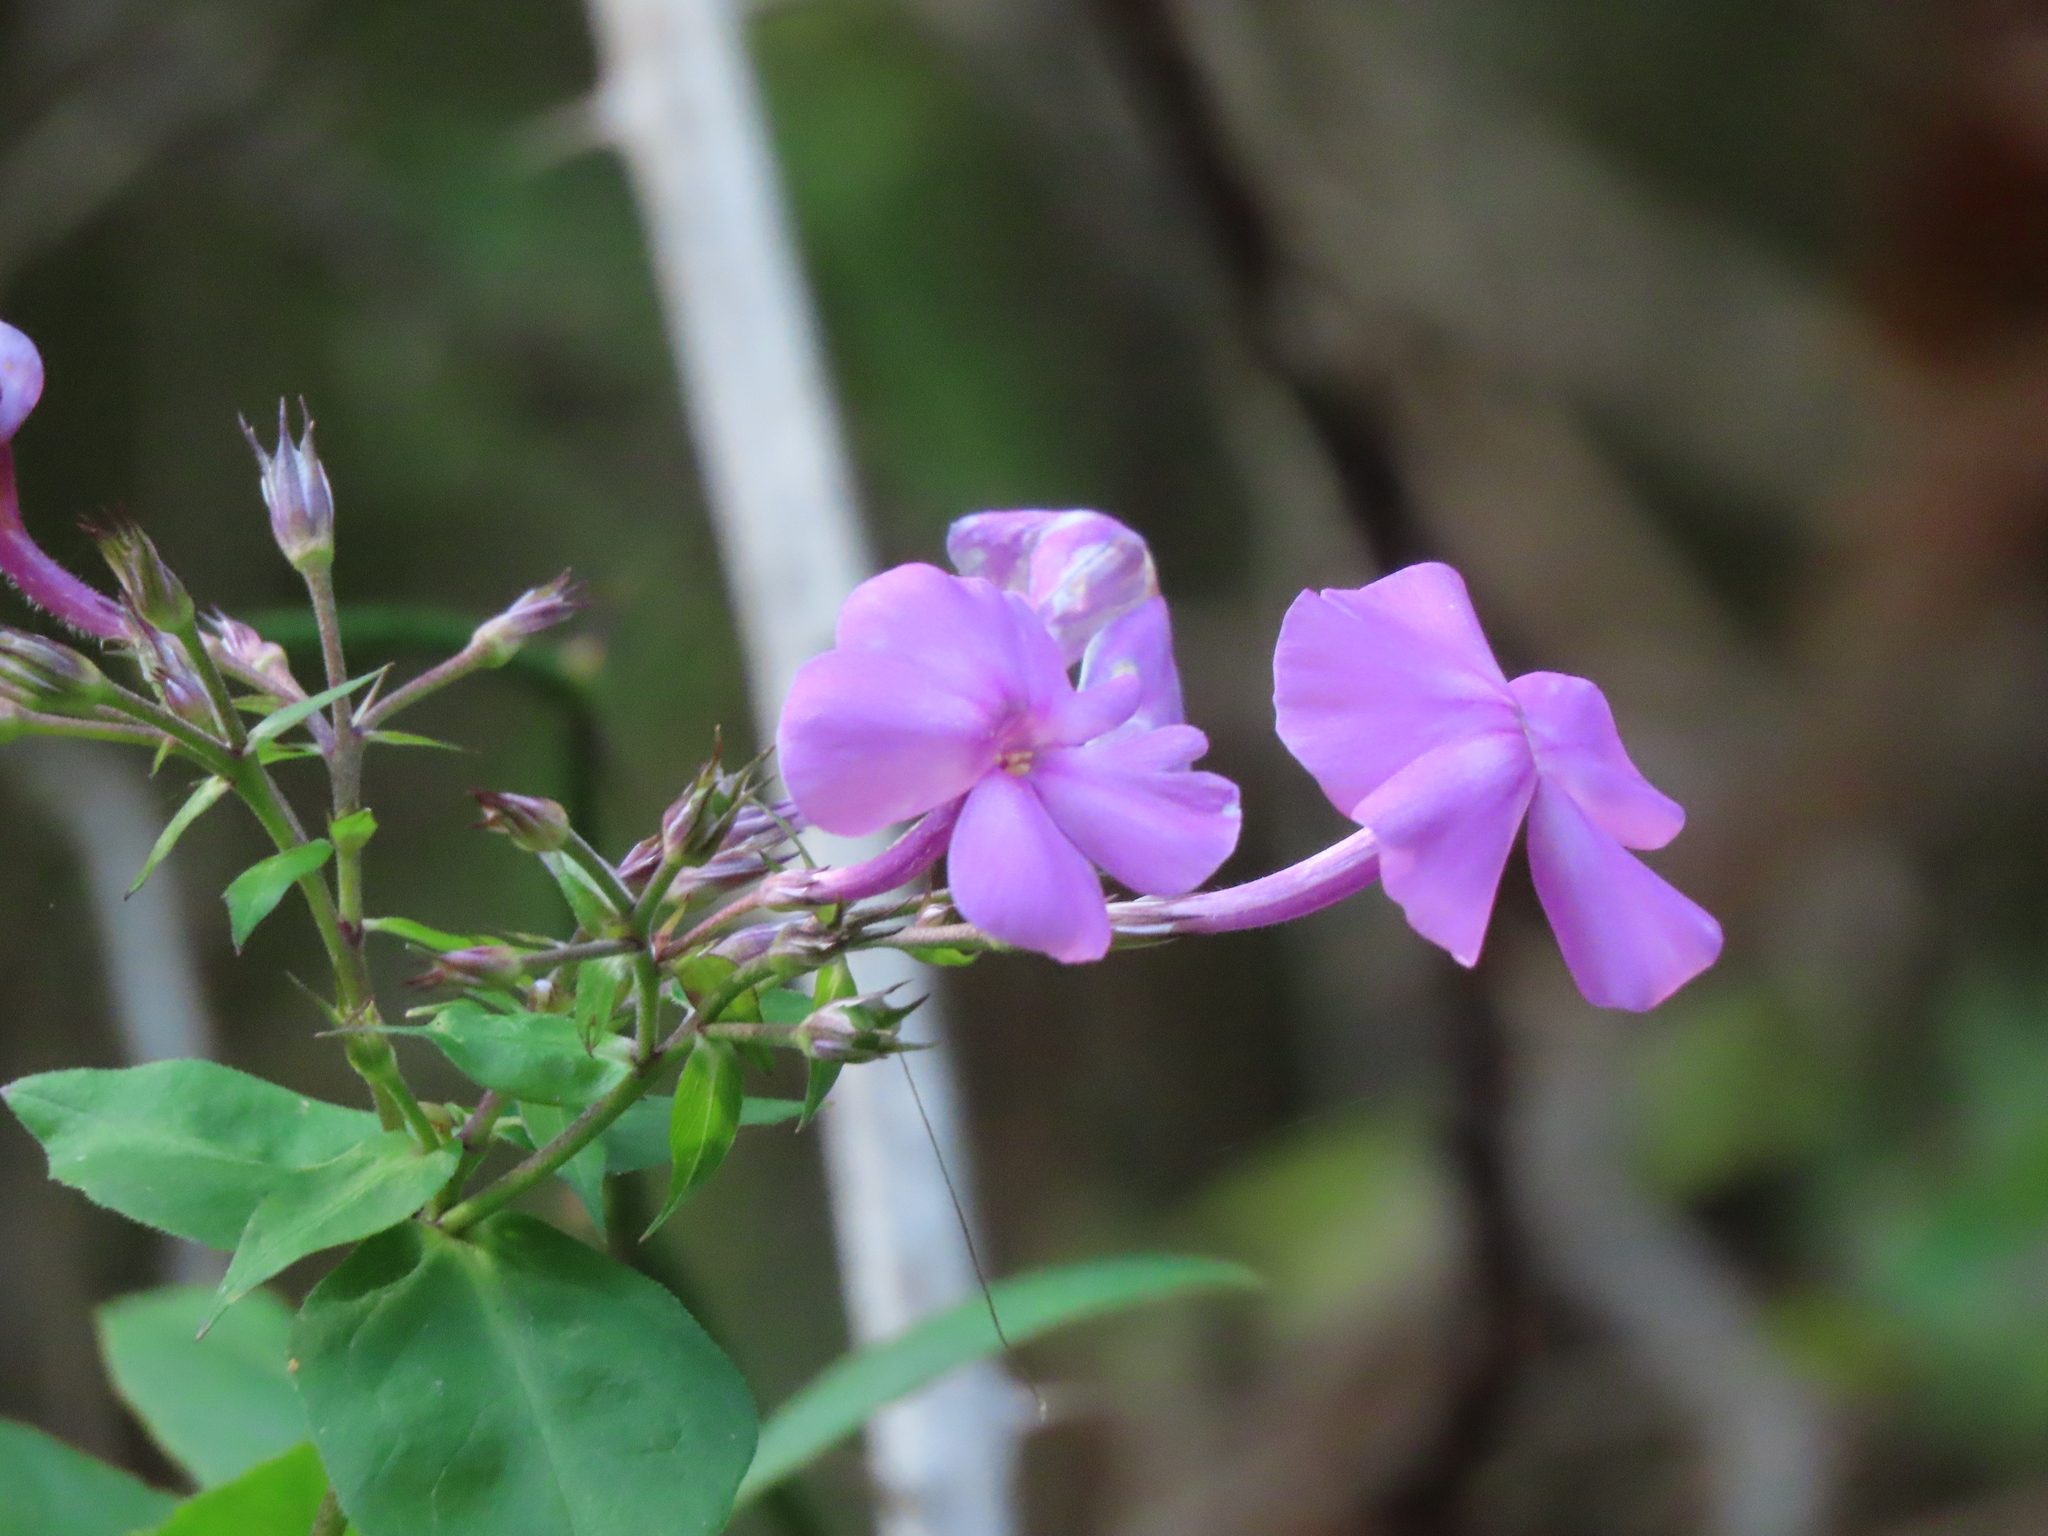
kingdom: Plantae
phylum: Tracheophyta
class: Magnoliopsida
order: Ericales
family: Polemoniaceae
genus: Phlox
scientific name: Phlox paniculata
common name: Fall phlox
